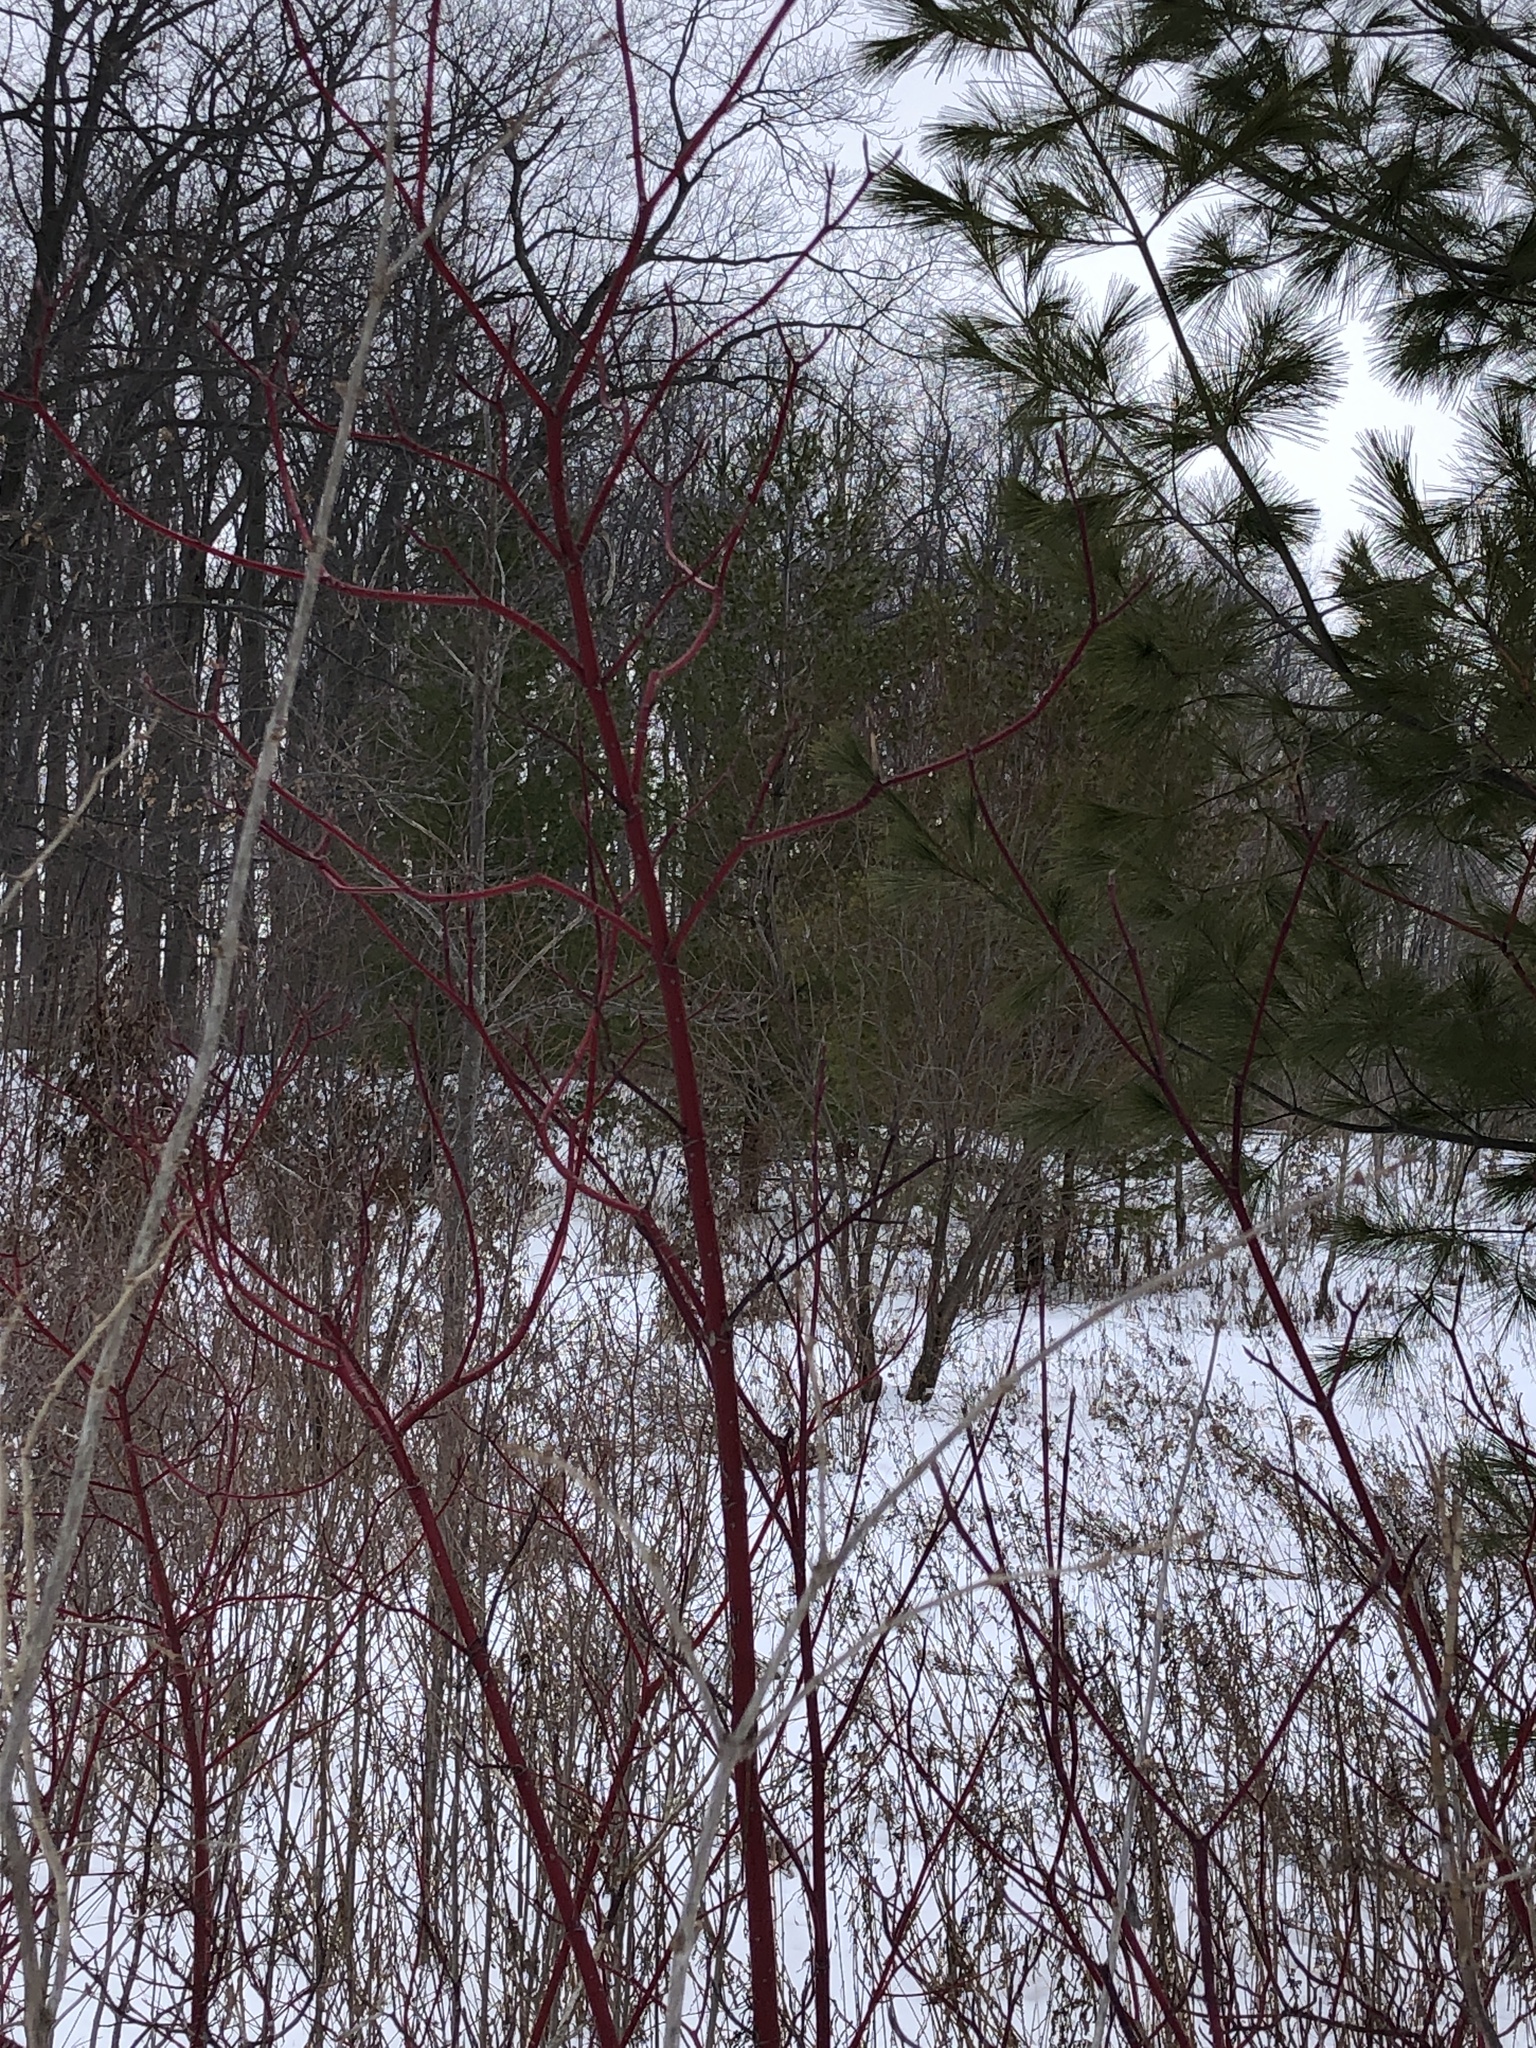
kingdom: Plantae
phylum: Tracheophyta
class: Magnoliopsida
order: Cornales
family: Cornaceae
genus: Cornus
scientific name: Cornus sericea
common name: Red-osier dogwood
